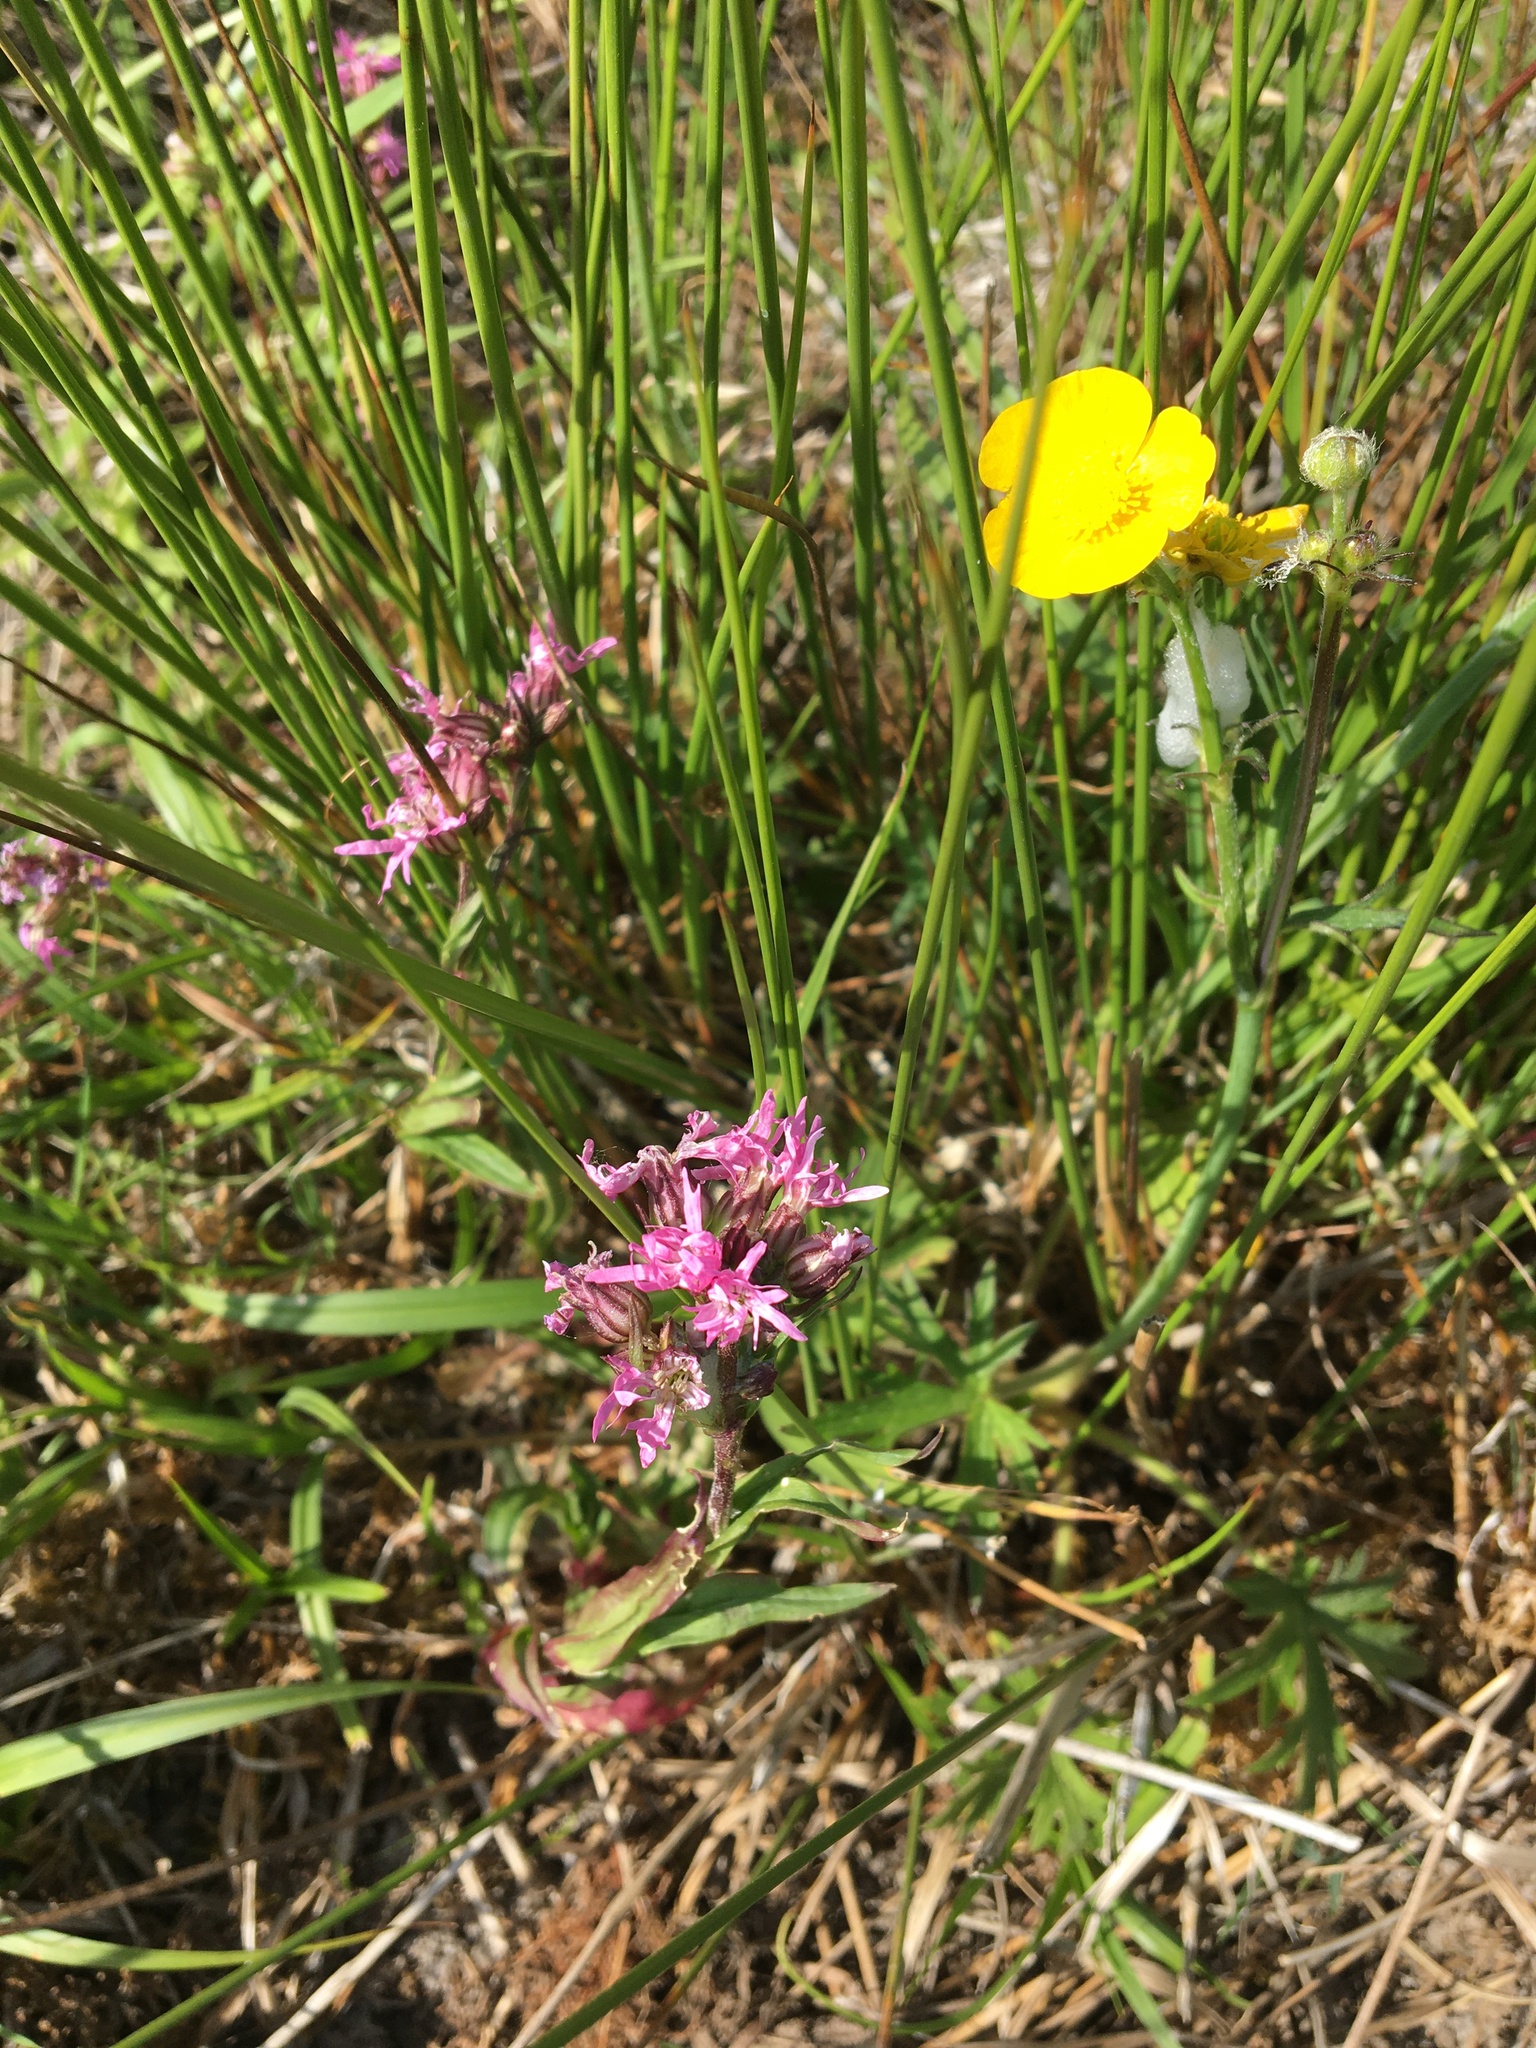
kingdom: Plantae
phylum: Tracheophyta
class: Magnoliopsida
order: Caryophyllales
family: Caryophyllaceae
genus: Silene
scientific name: Silene flos-cuculi
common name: Ragged-robin
